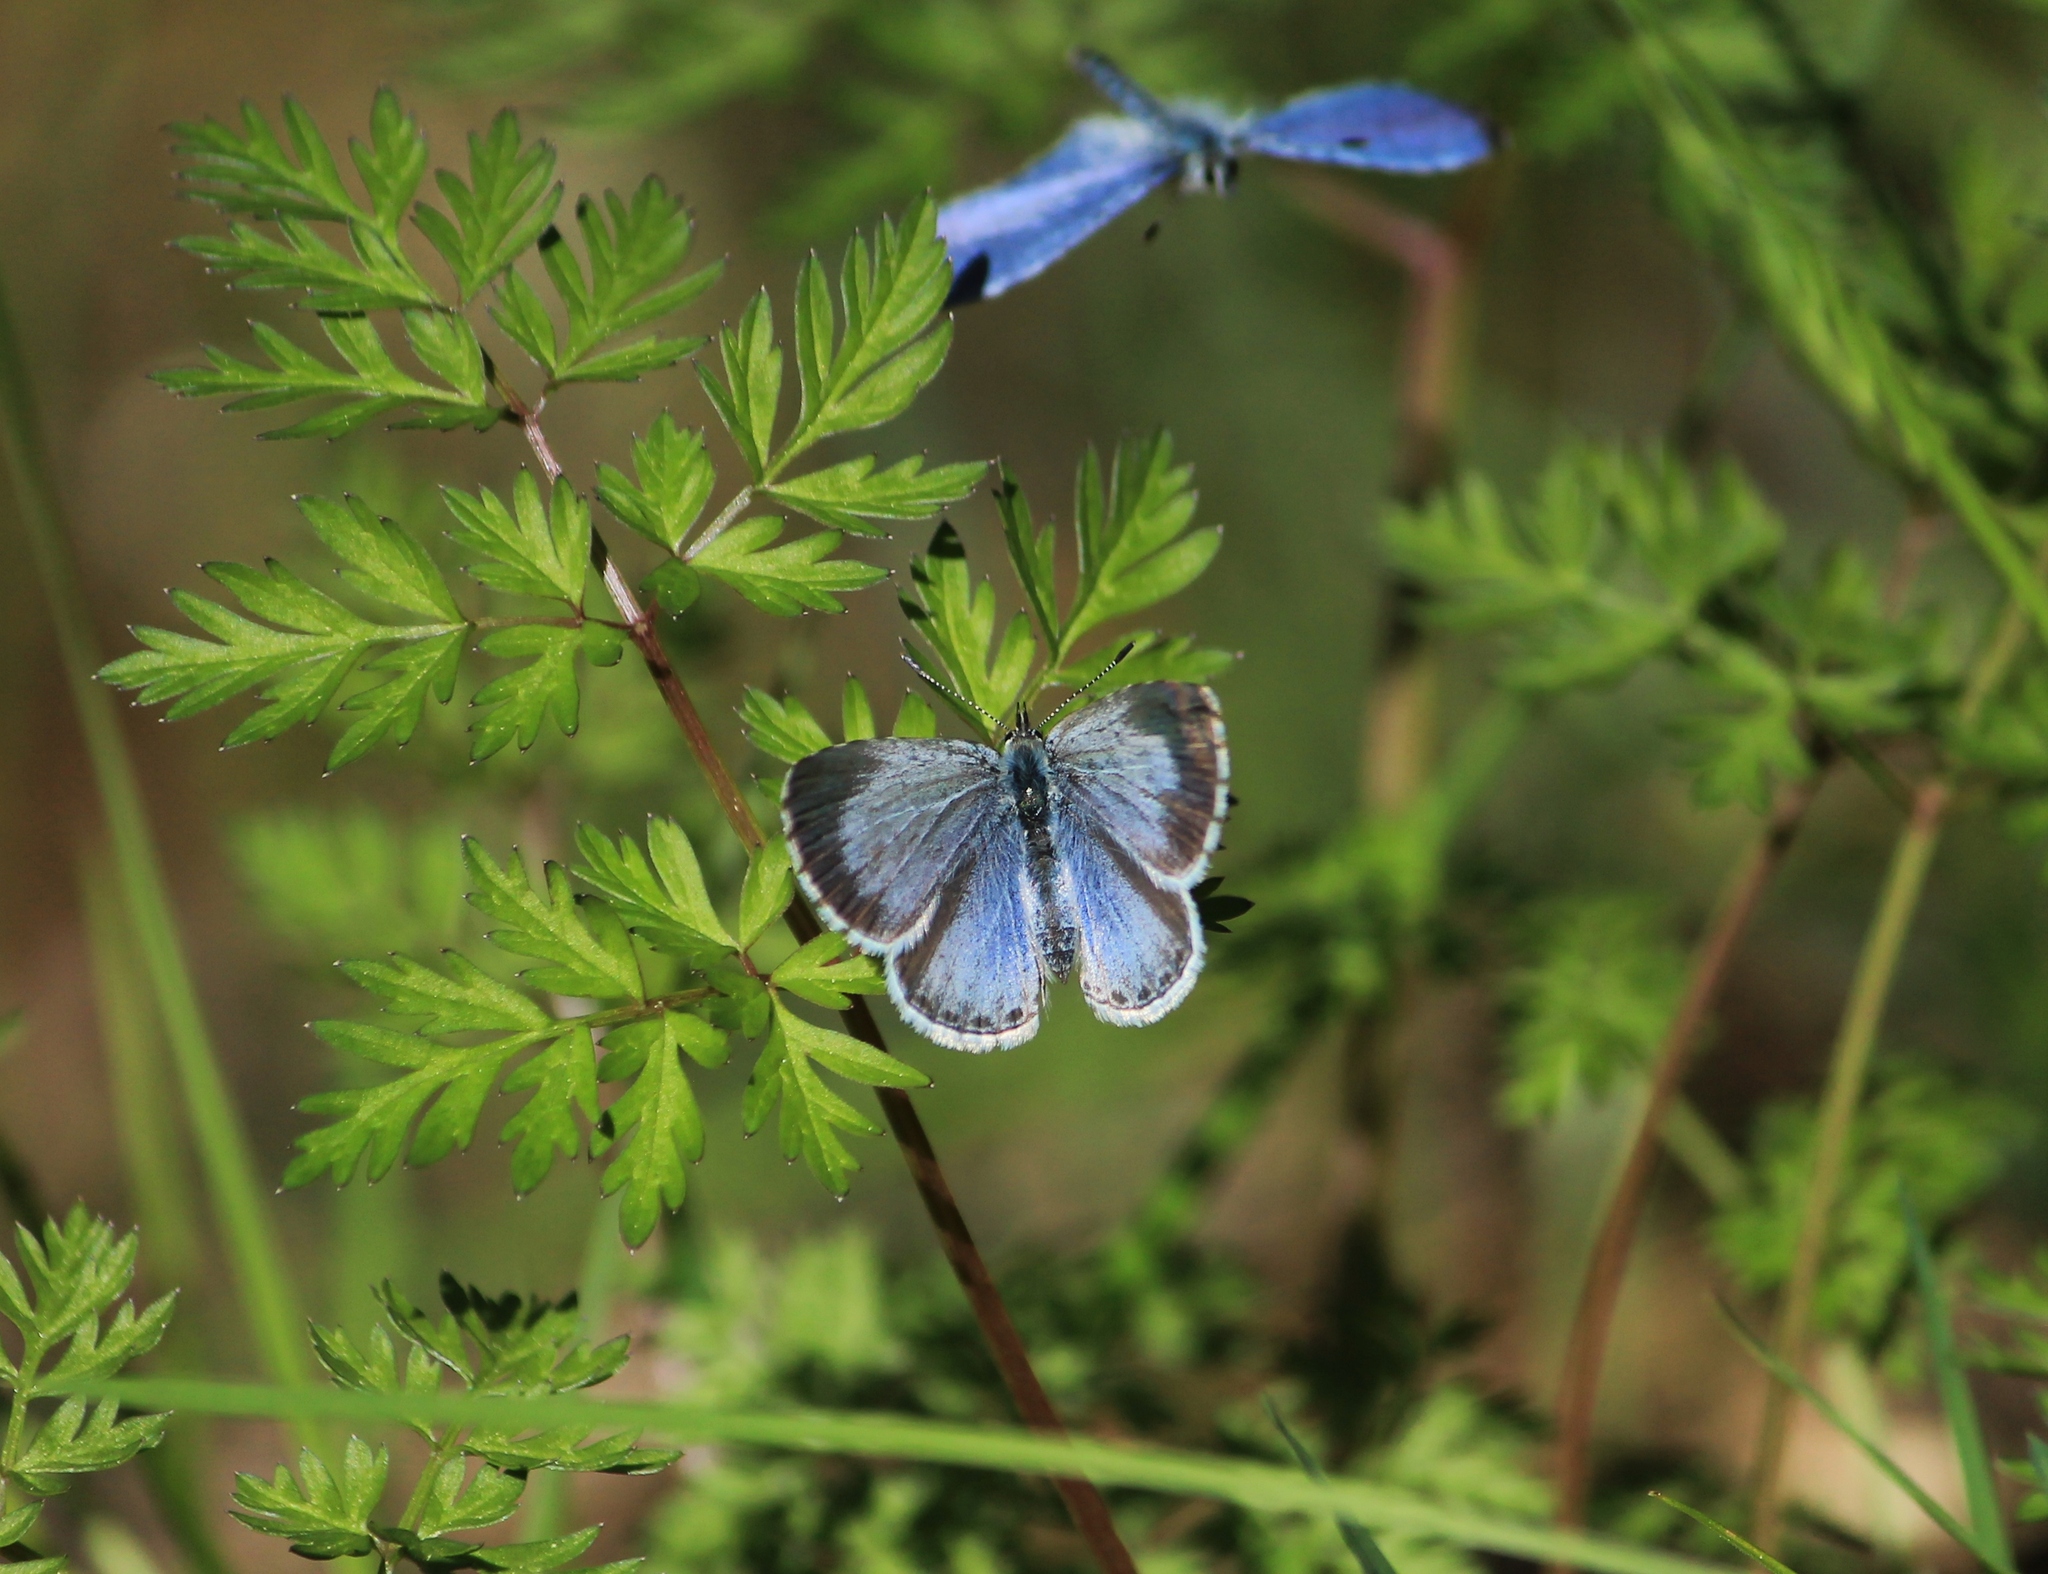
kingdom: Animalia
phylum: Arthropoda
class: Insecta
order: Lepidoptera
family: Lycaenidae
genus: Celastrina
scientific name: Celastrina argiolus
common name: Holly blue
